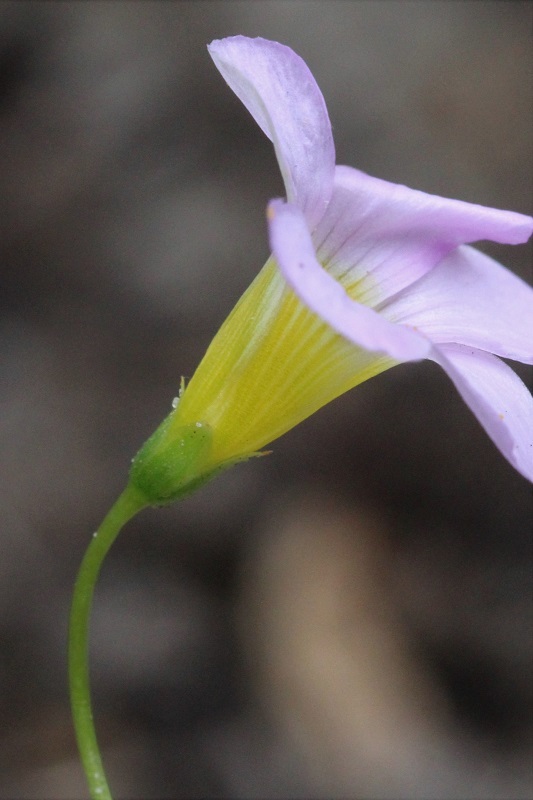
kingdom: Plantae
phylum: Tracheophyta
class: Magnoliopsida
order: Oxalidales
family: Oxalidaceae
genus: Oxalis
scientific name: Oxalis caprina
